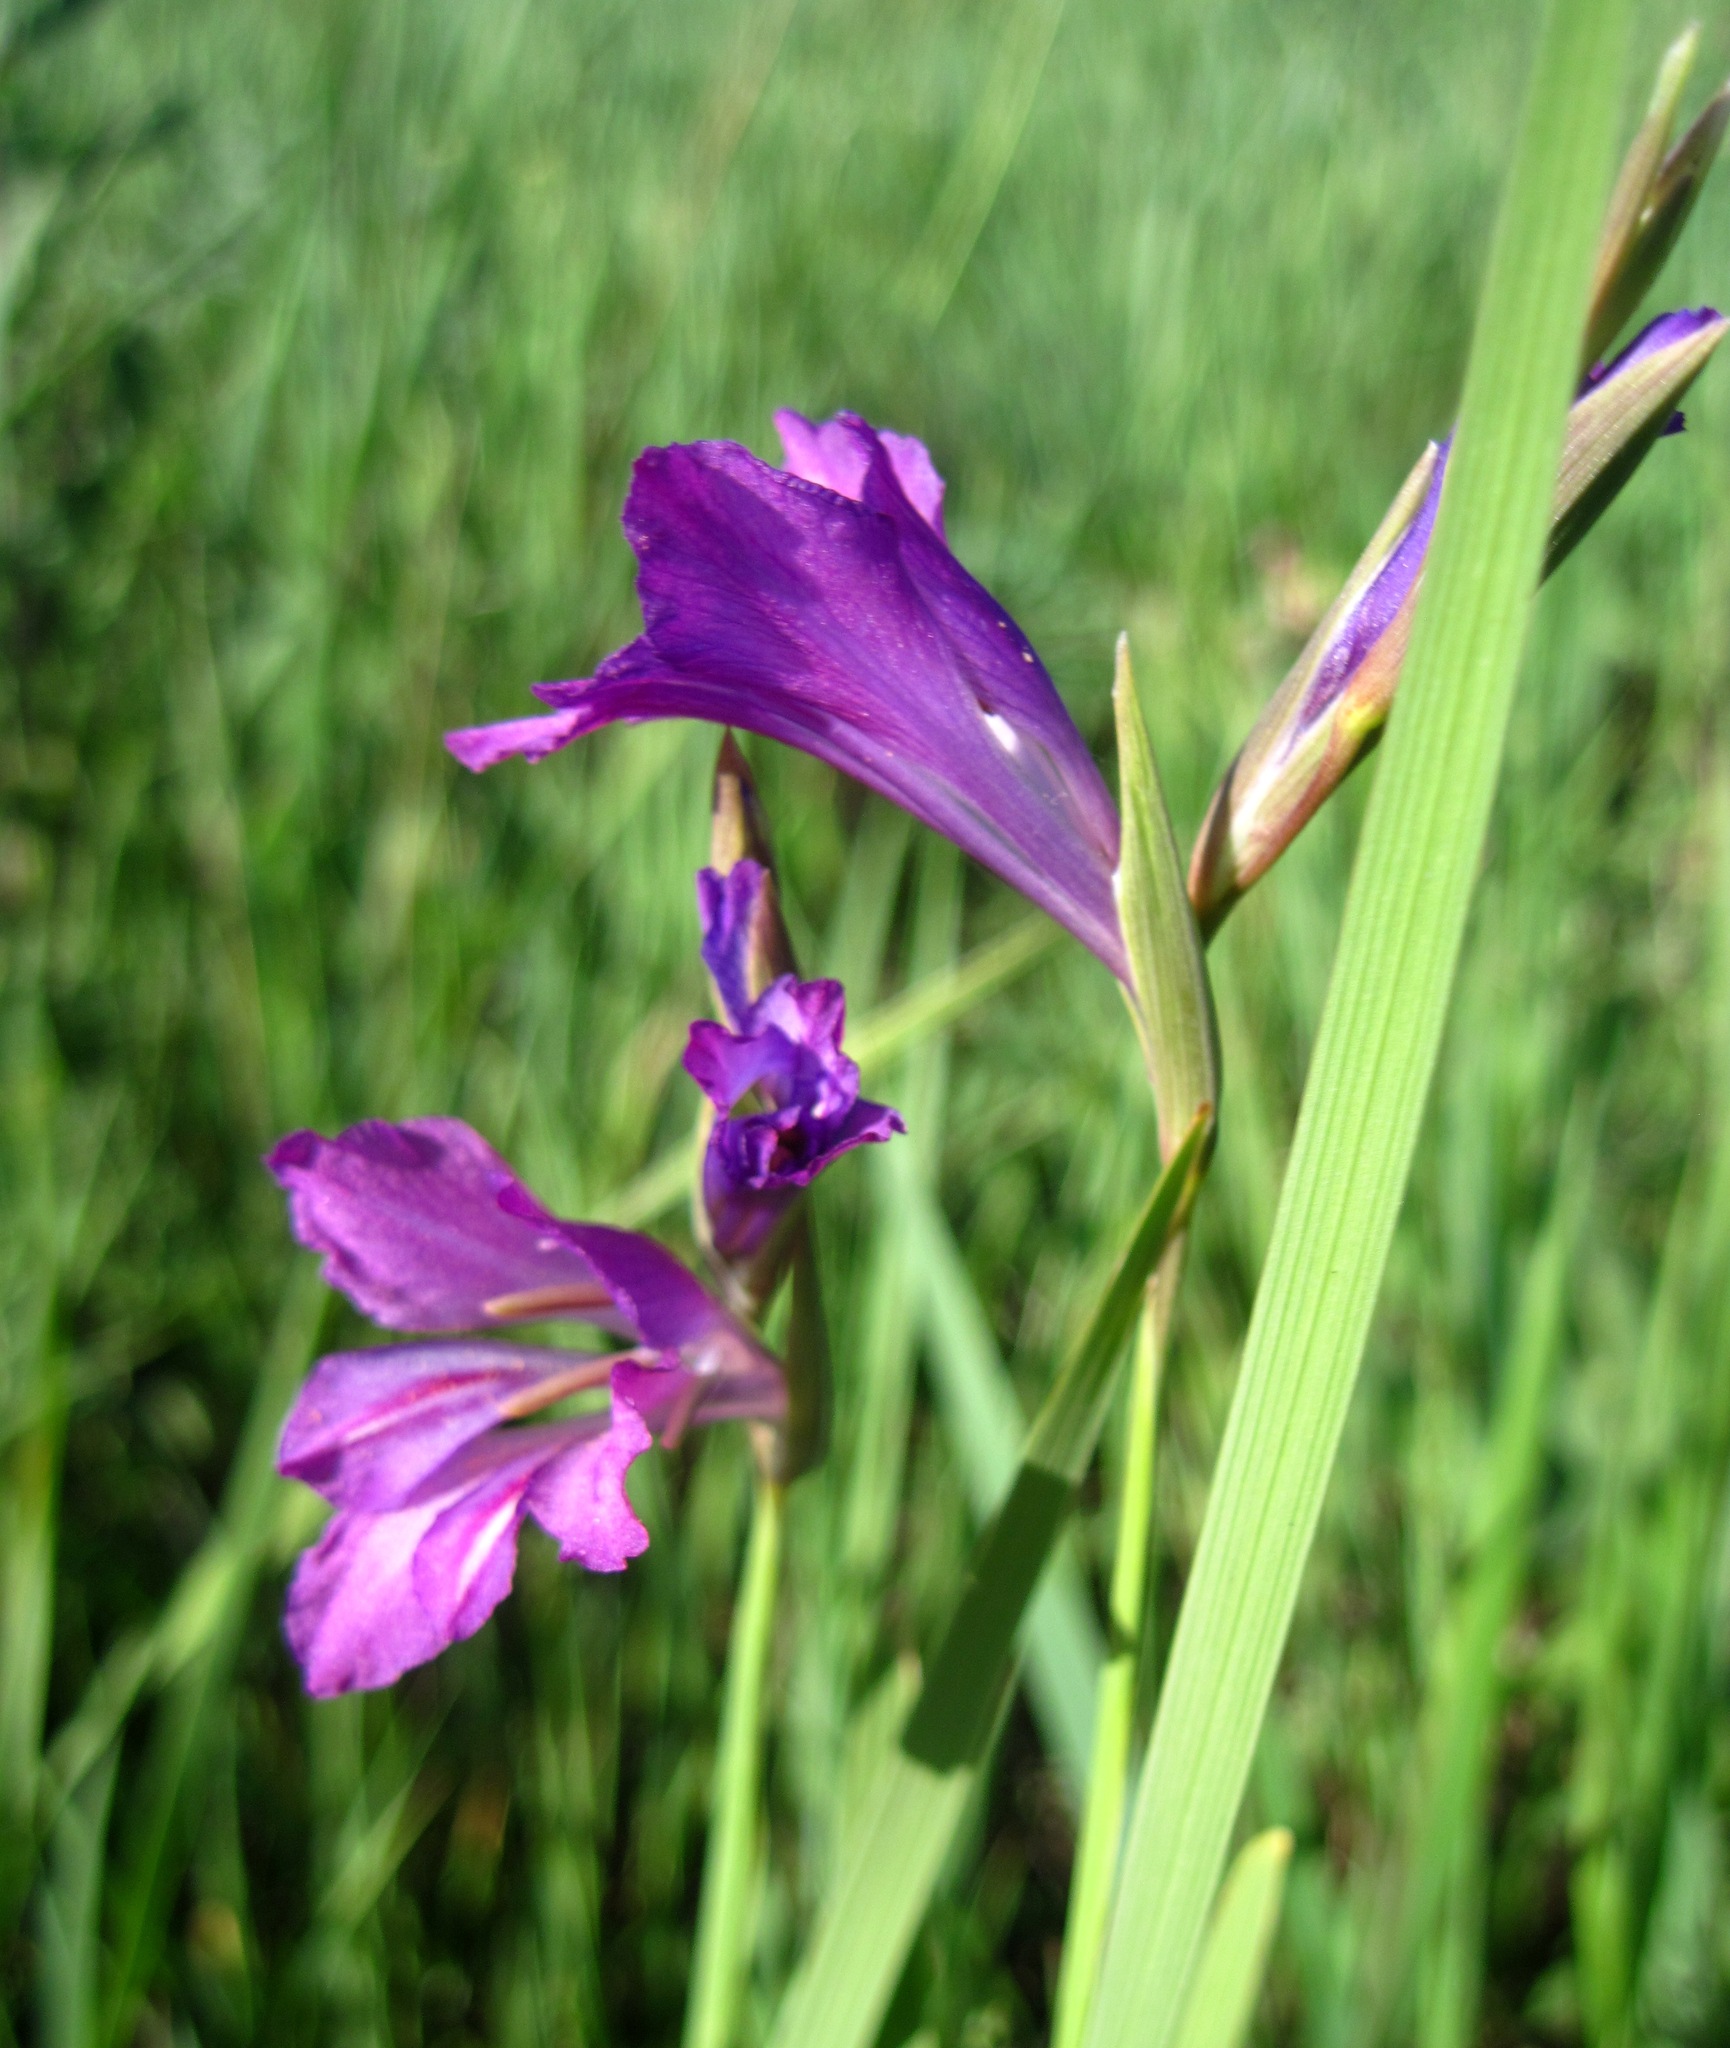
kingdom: Plantae
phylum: Tracheophyta
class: Liliopsida
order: Asparagales
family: Iridaceae
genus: Gladiolus
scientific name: Gladiolus tenuis
